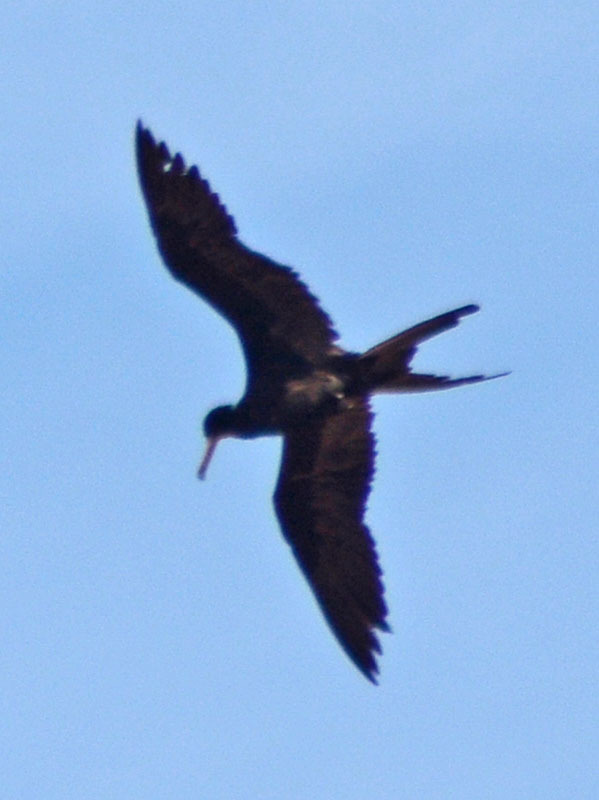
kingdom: Animalia
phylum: Chordata
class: Aves
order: Suliformes
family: Fregatidae
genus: Fregata
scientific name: Fregata magnificens
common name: Magnificent frigatebird
